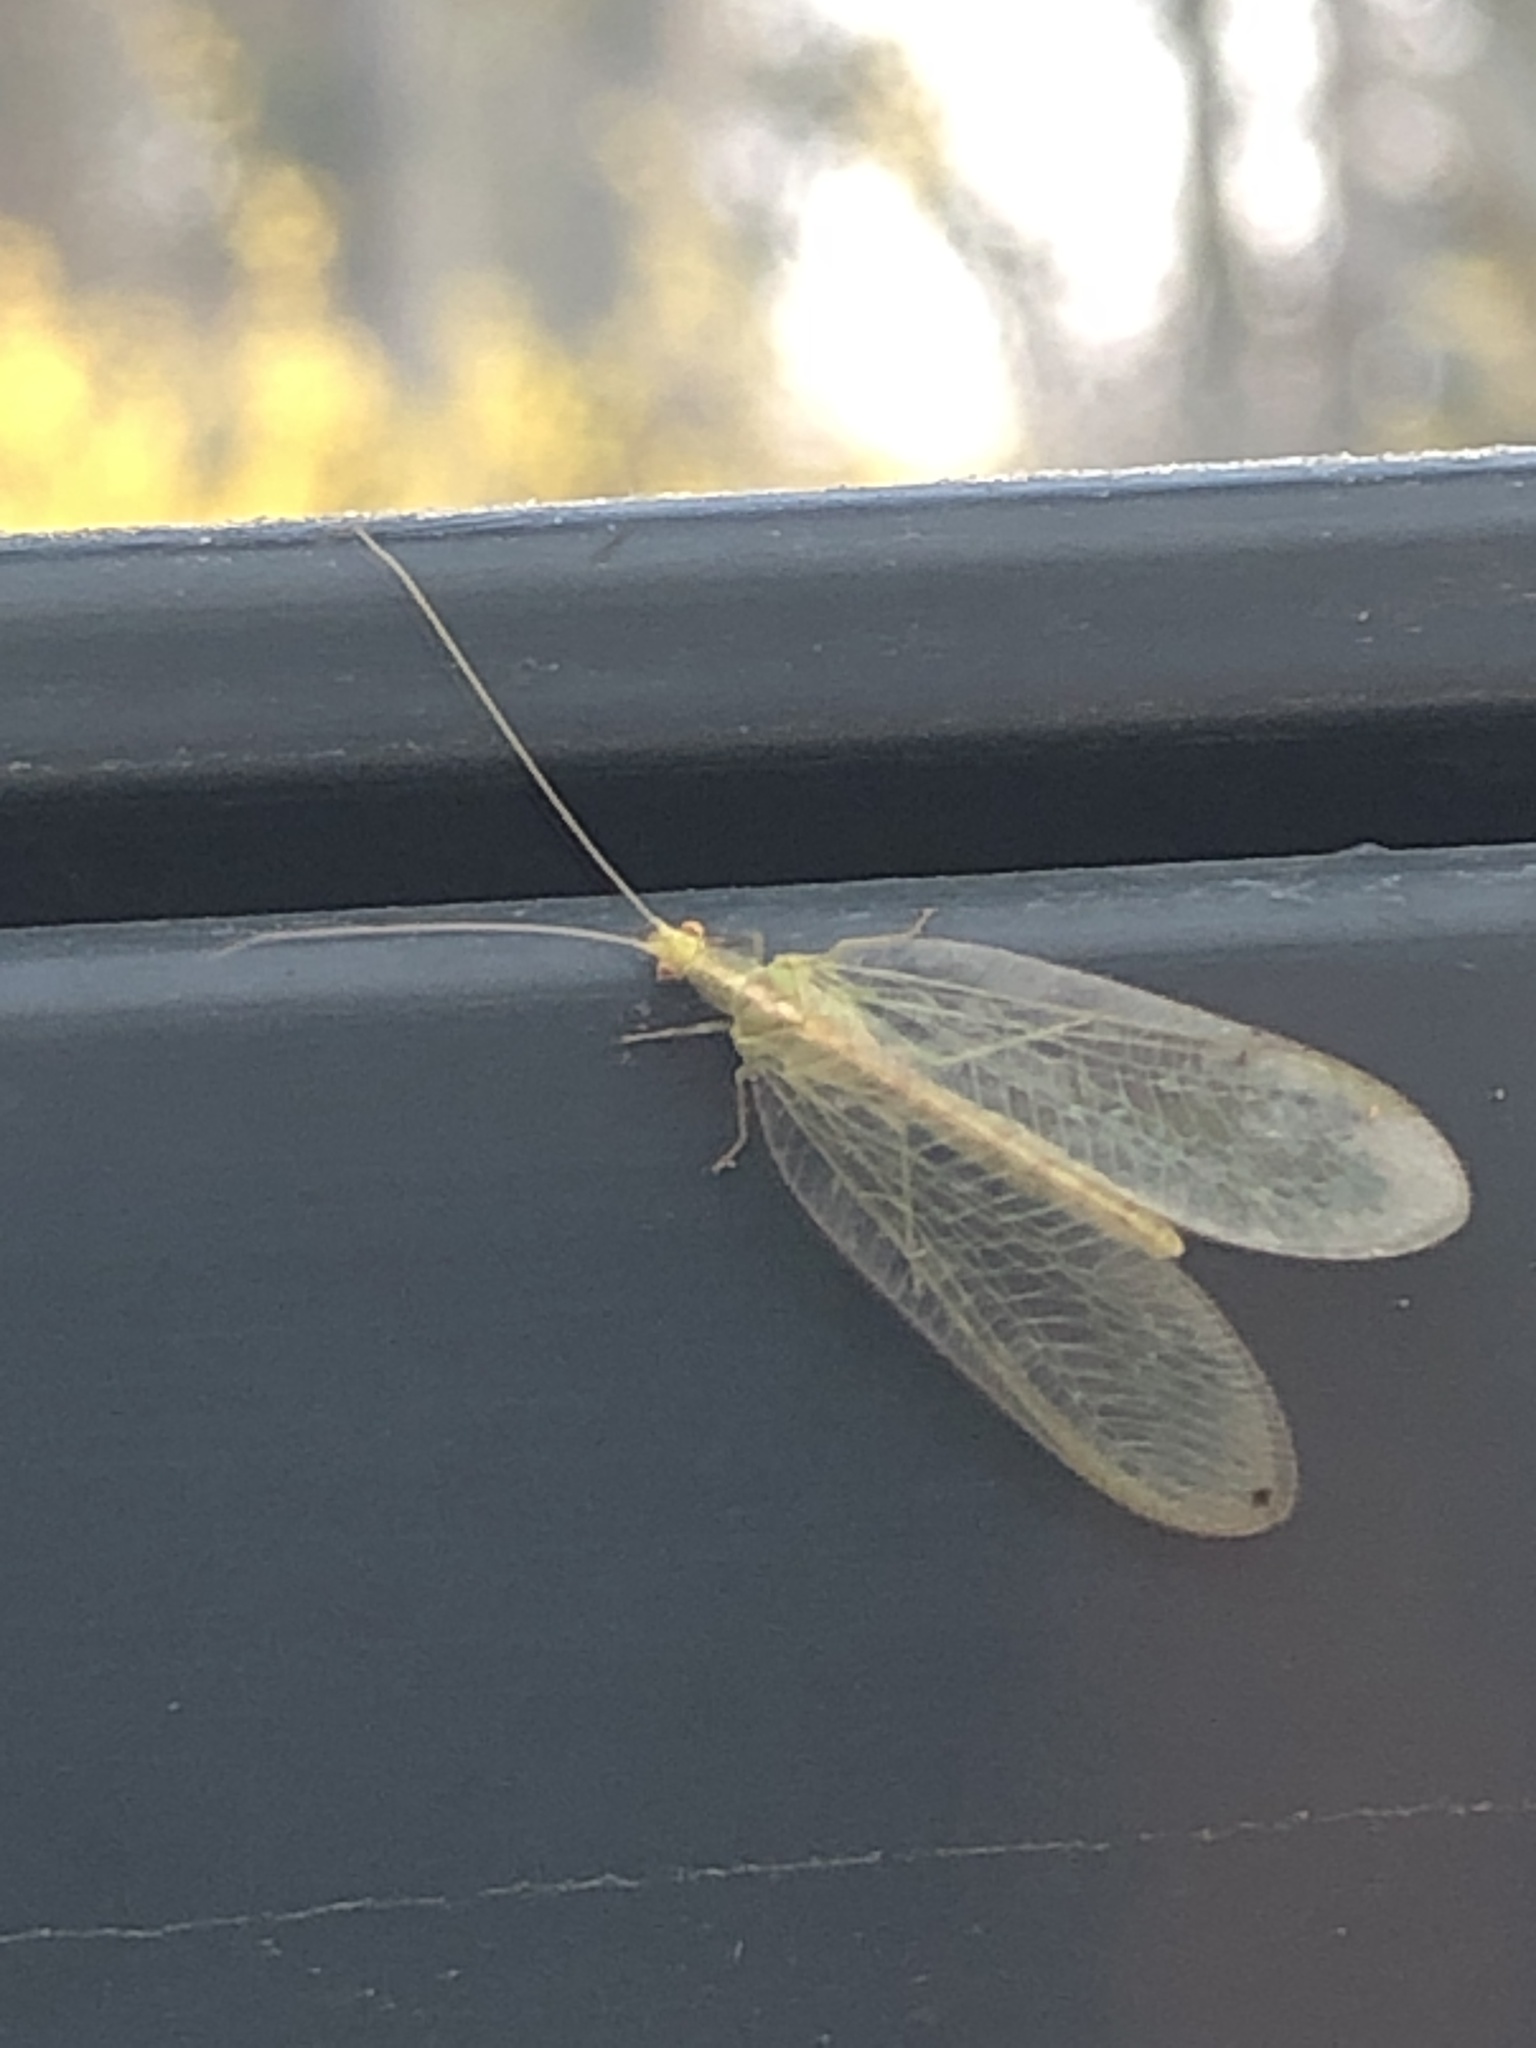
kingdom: Animalia
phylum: Arthropoda
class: Insecta
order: Neuroptera
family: Chrysopidae
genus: Chrysoperla
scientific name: Chrysoperla
